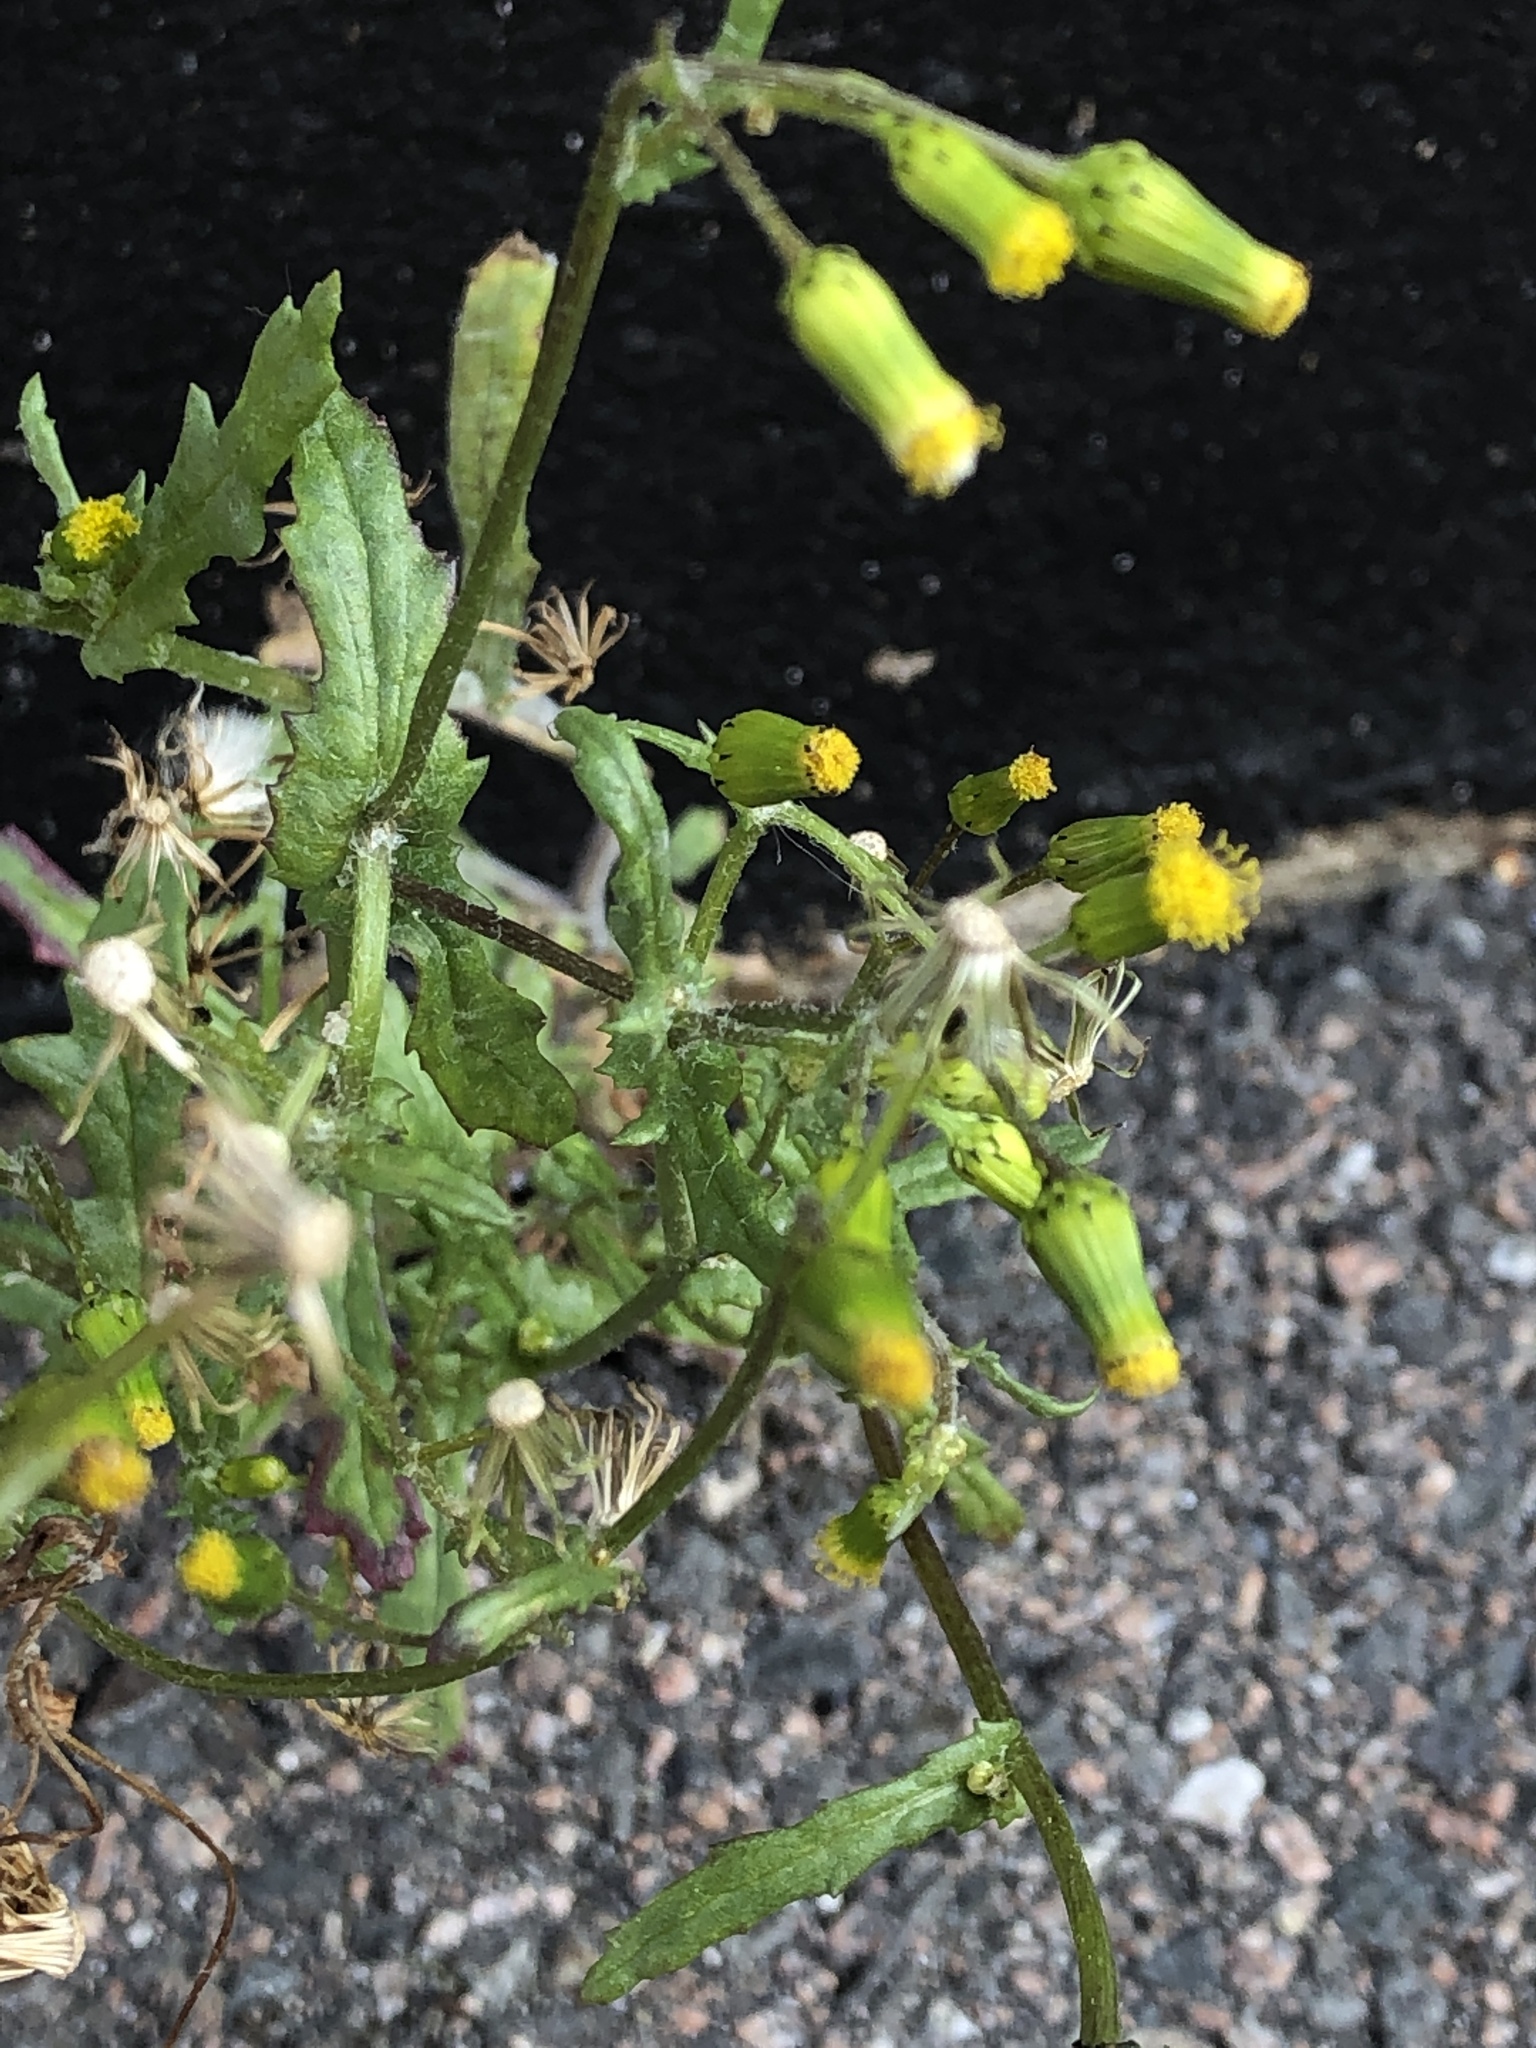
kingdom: Plantae
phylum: Tracheophyta
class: Magnoliopsida
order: Asterales
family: Asteraceae
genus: Senecio
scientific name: Senecio vulgaris
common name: Old-man-in-the-spring
